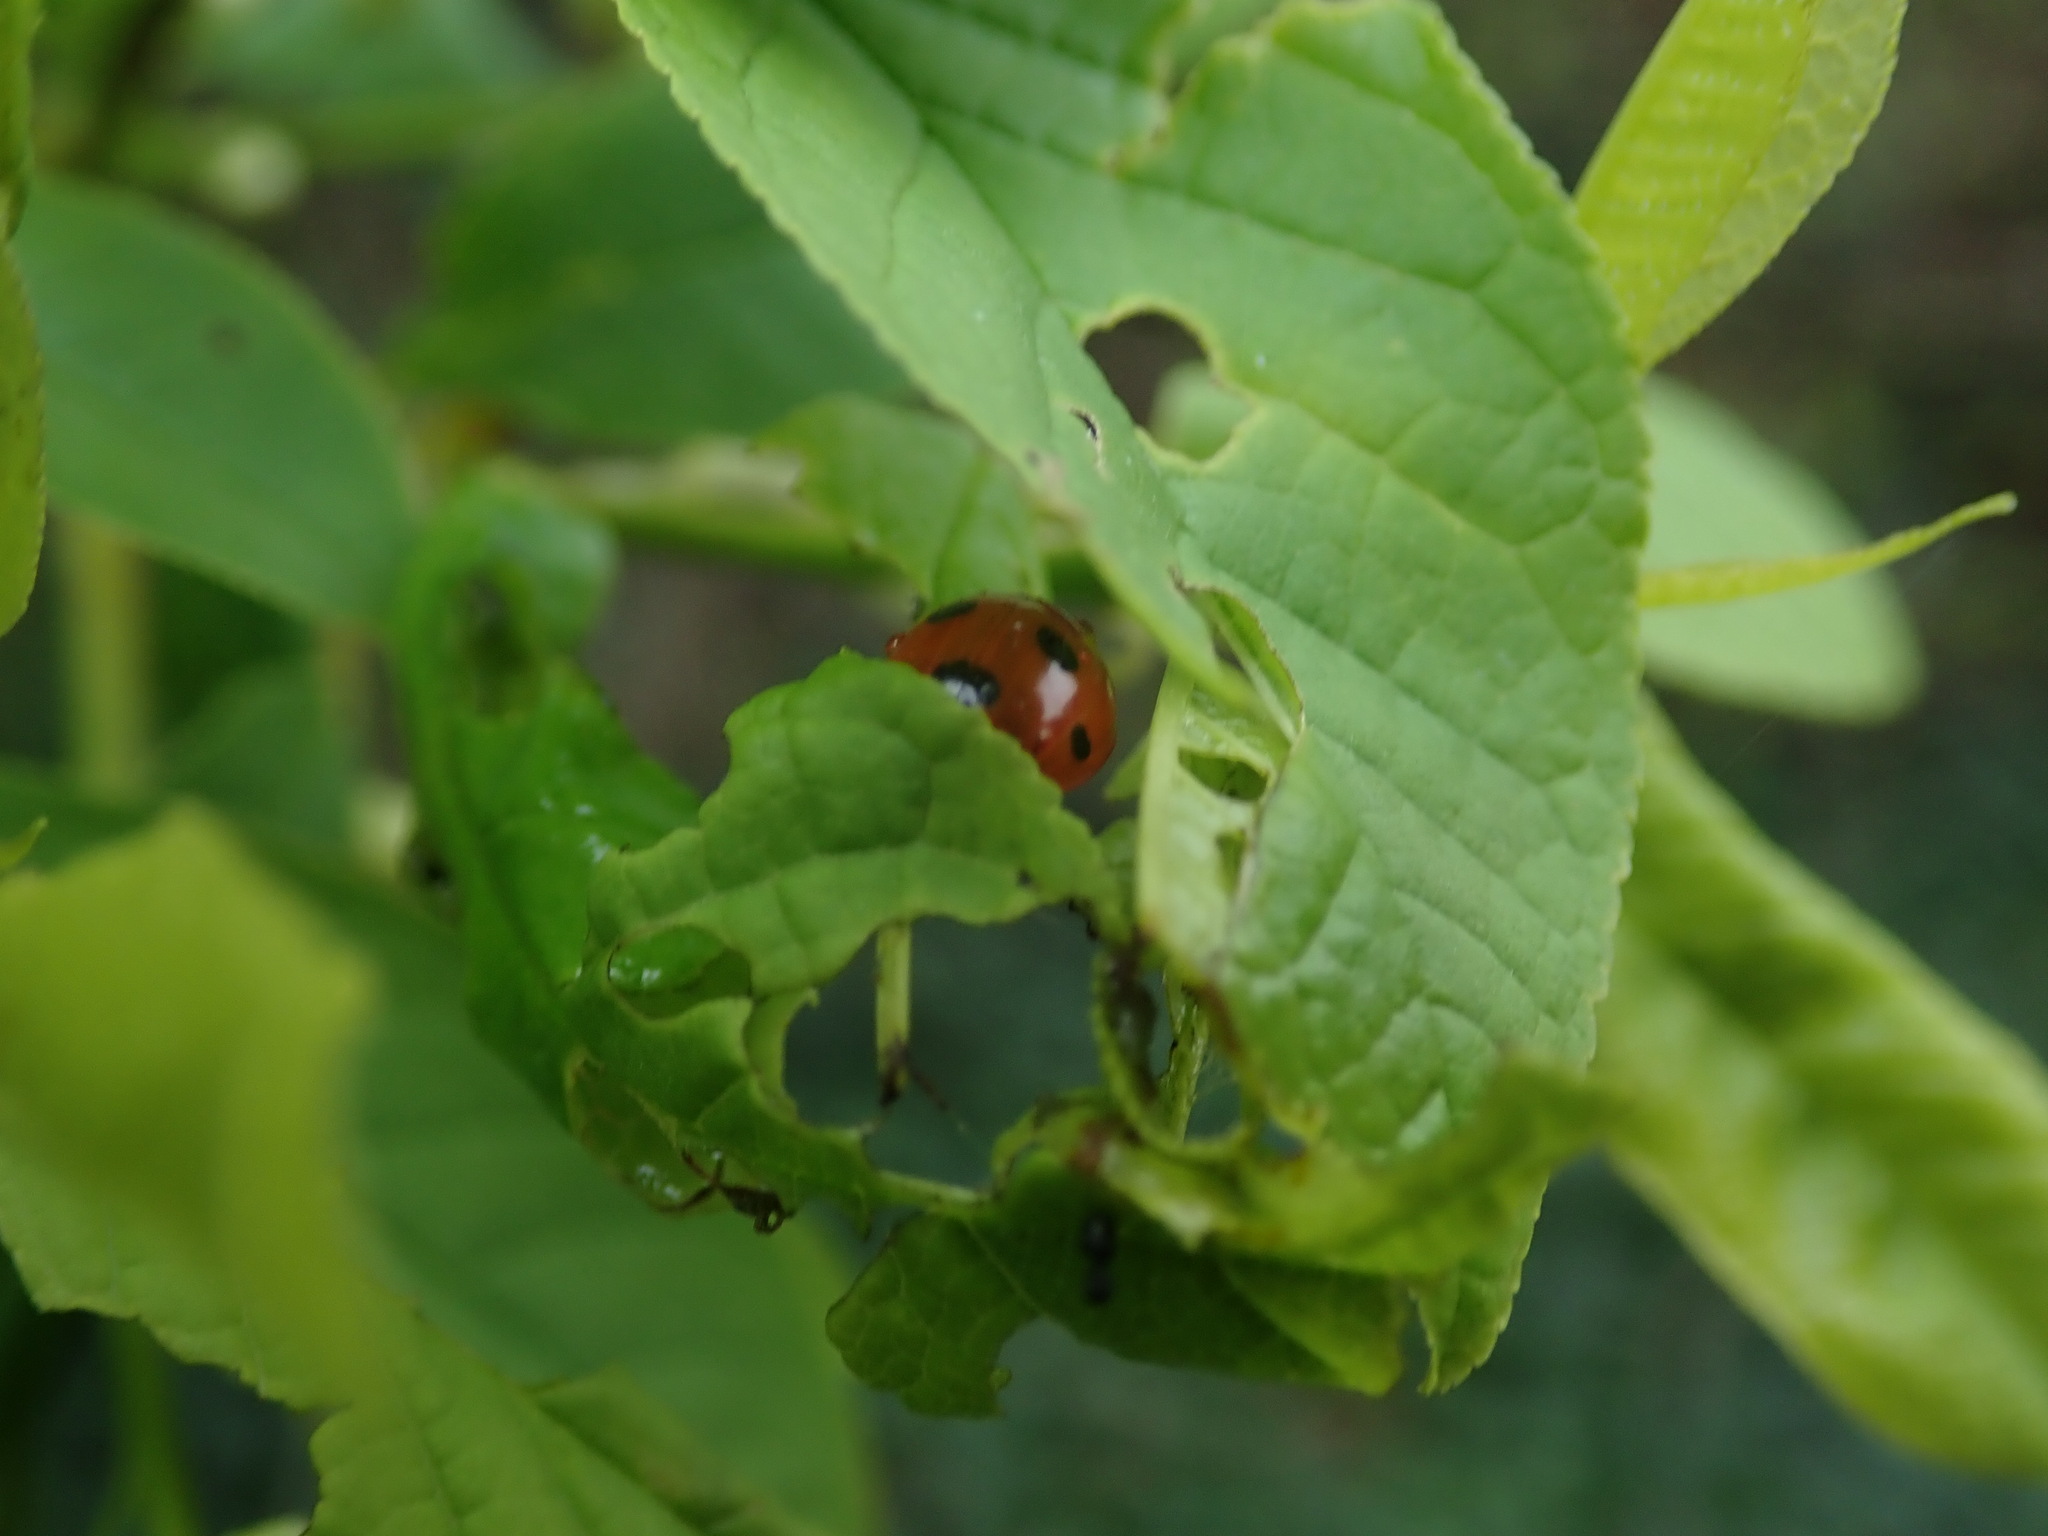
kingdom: Animalia
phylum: Arthropoda
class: Insecta
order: Coleoptera
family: Coccinellidae
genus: Coccinella
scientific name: Coccinella septempunctata
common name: Sevenspotted lady beetle
